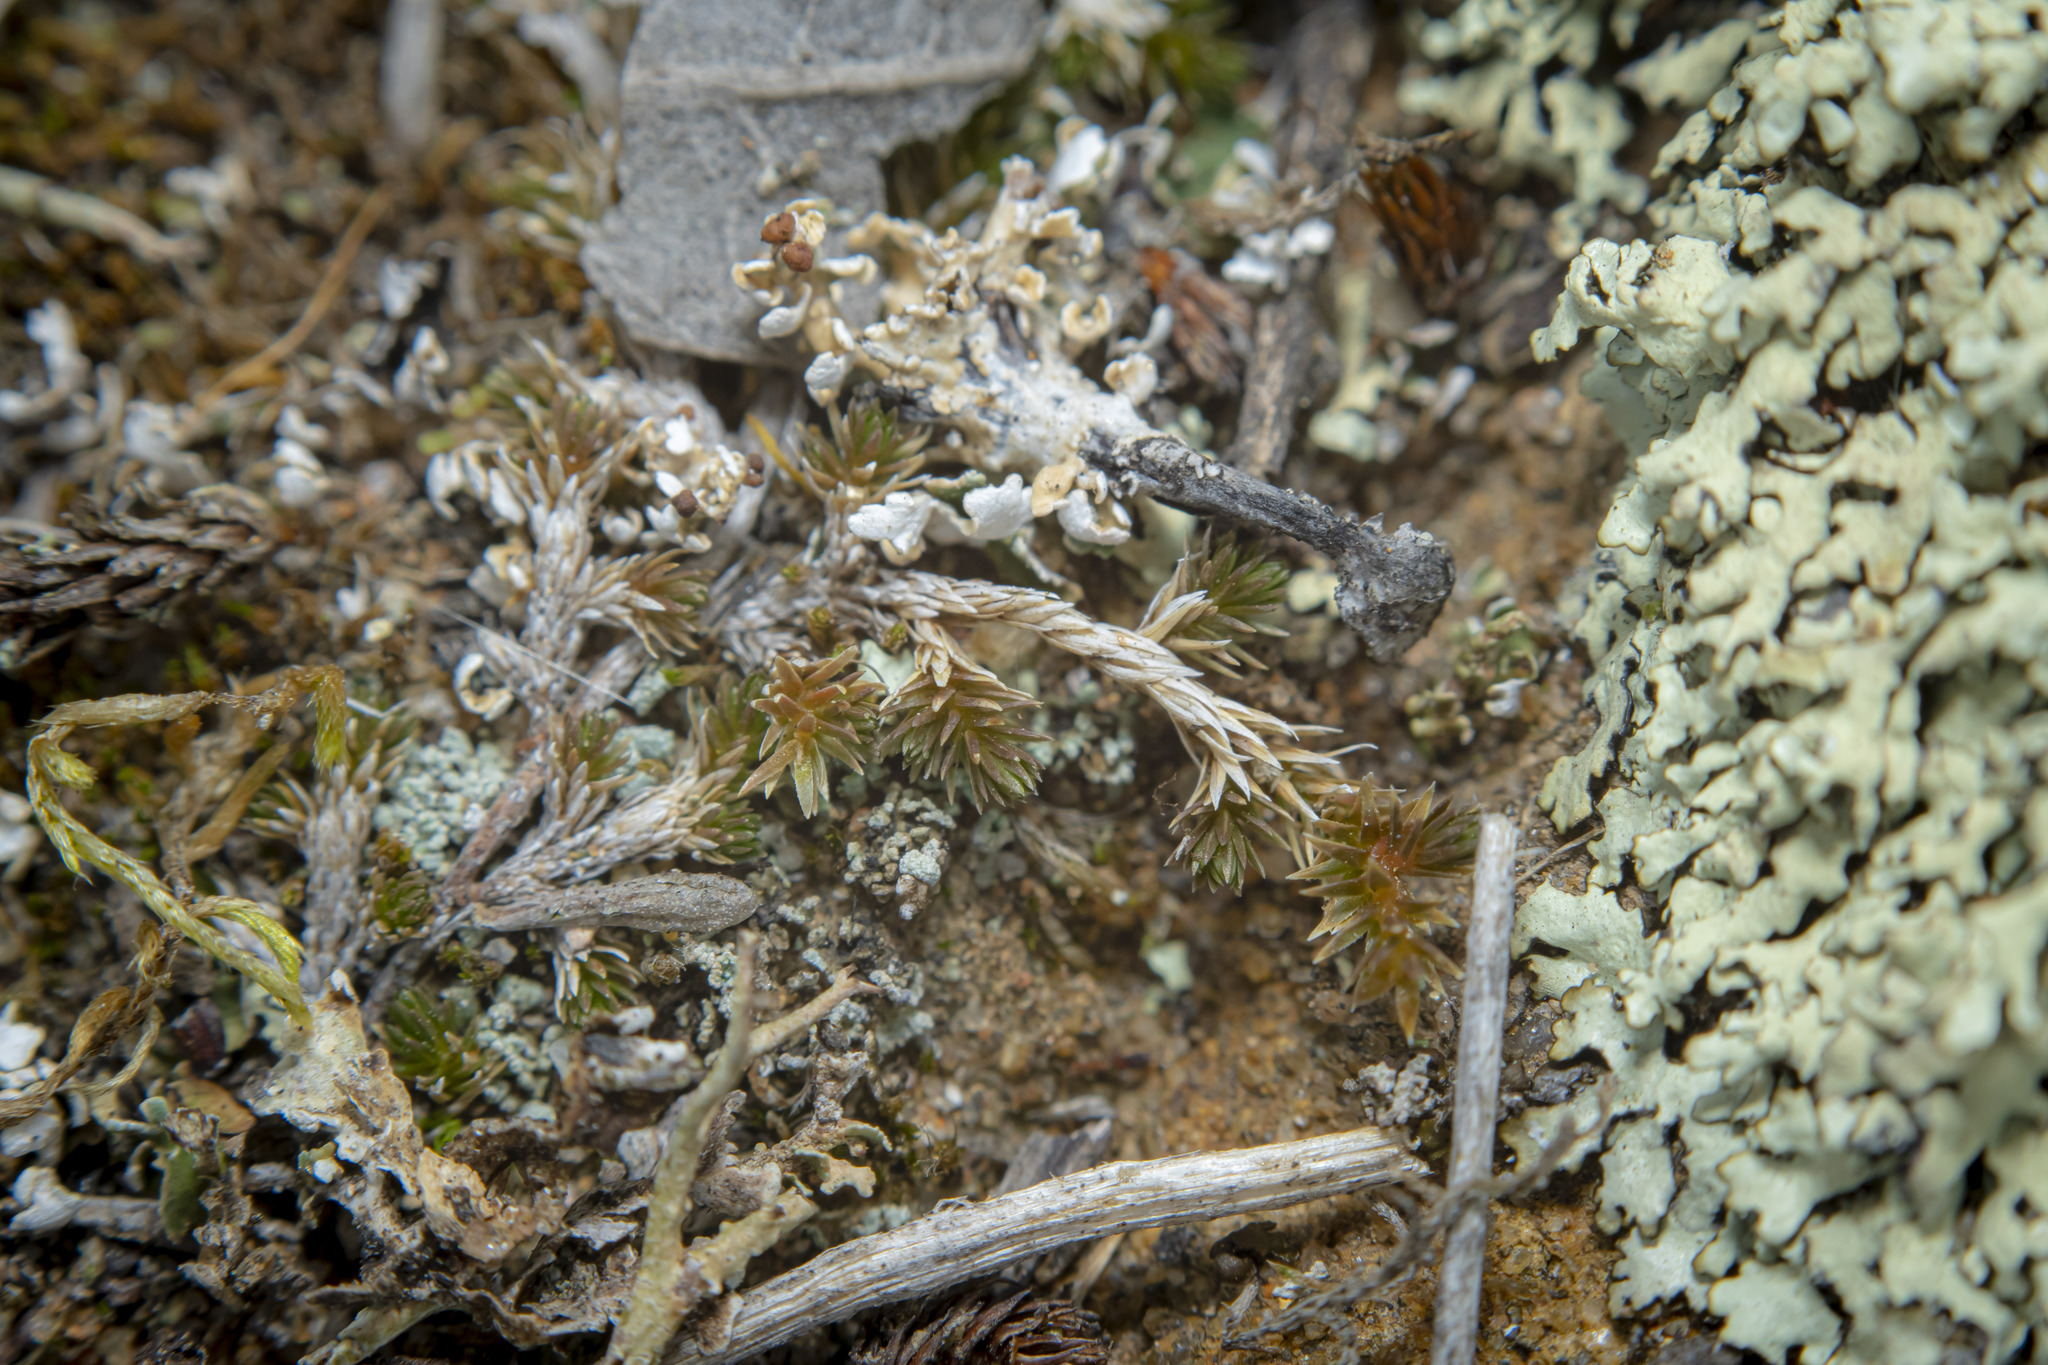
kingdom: Plantae
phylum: Tracheophyta
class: Lycopodiopsida
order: Selaginellales
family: Selaginellaceae
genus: Selaginella
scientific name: Selaginella cinerascens
